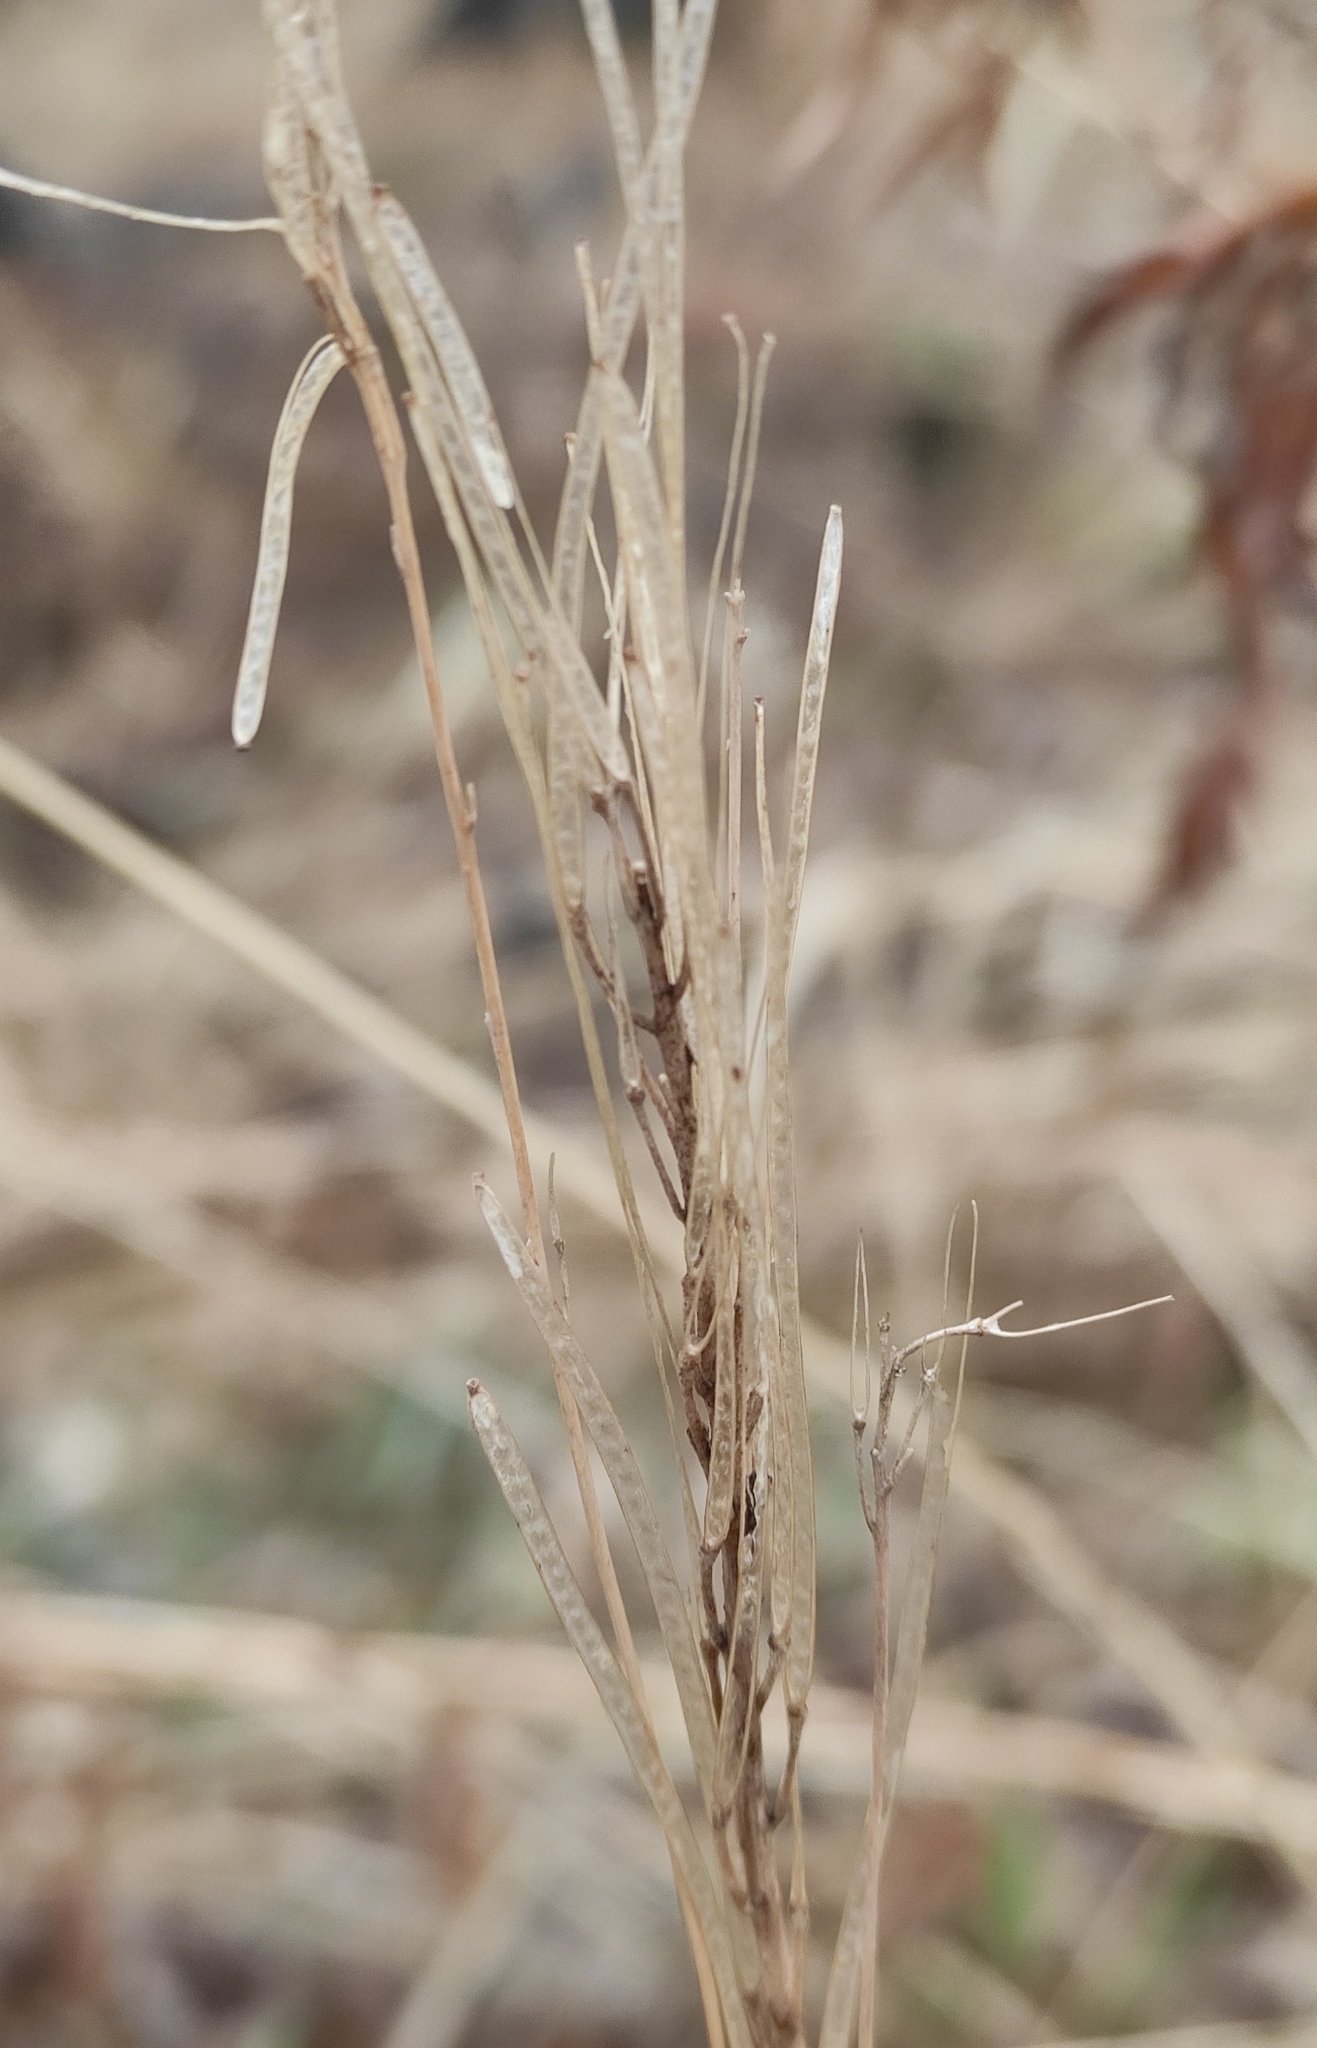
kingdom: Plantae
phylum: Tracheophyta
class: Magnoliopsida
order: Brassicales
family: Brassicaceae
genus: Arabis
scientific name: Arabis borealis
